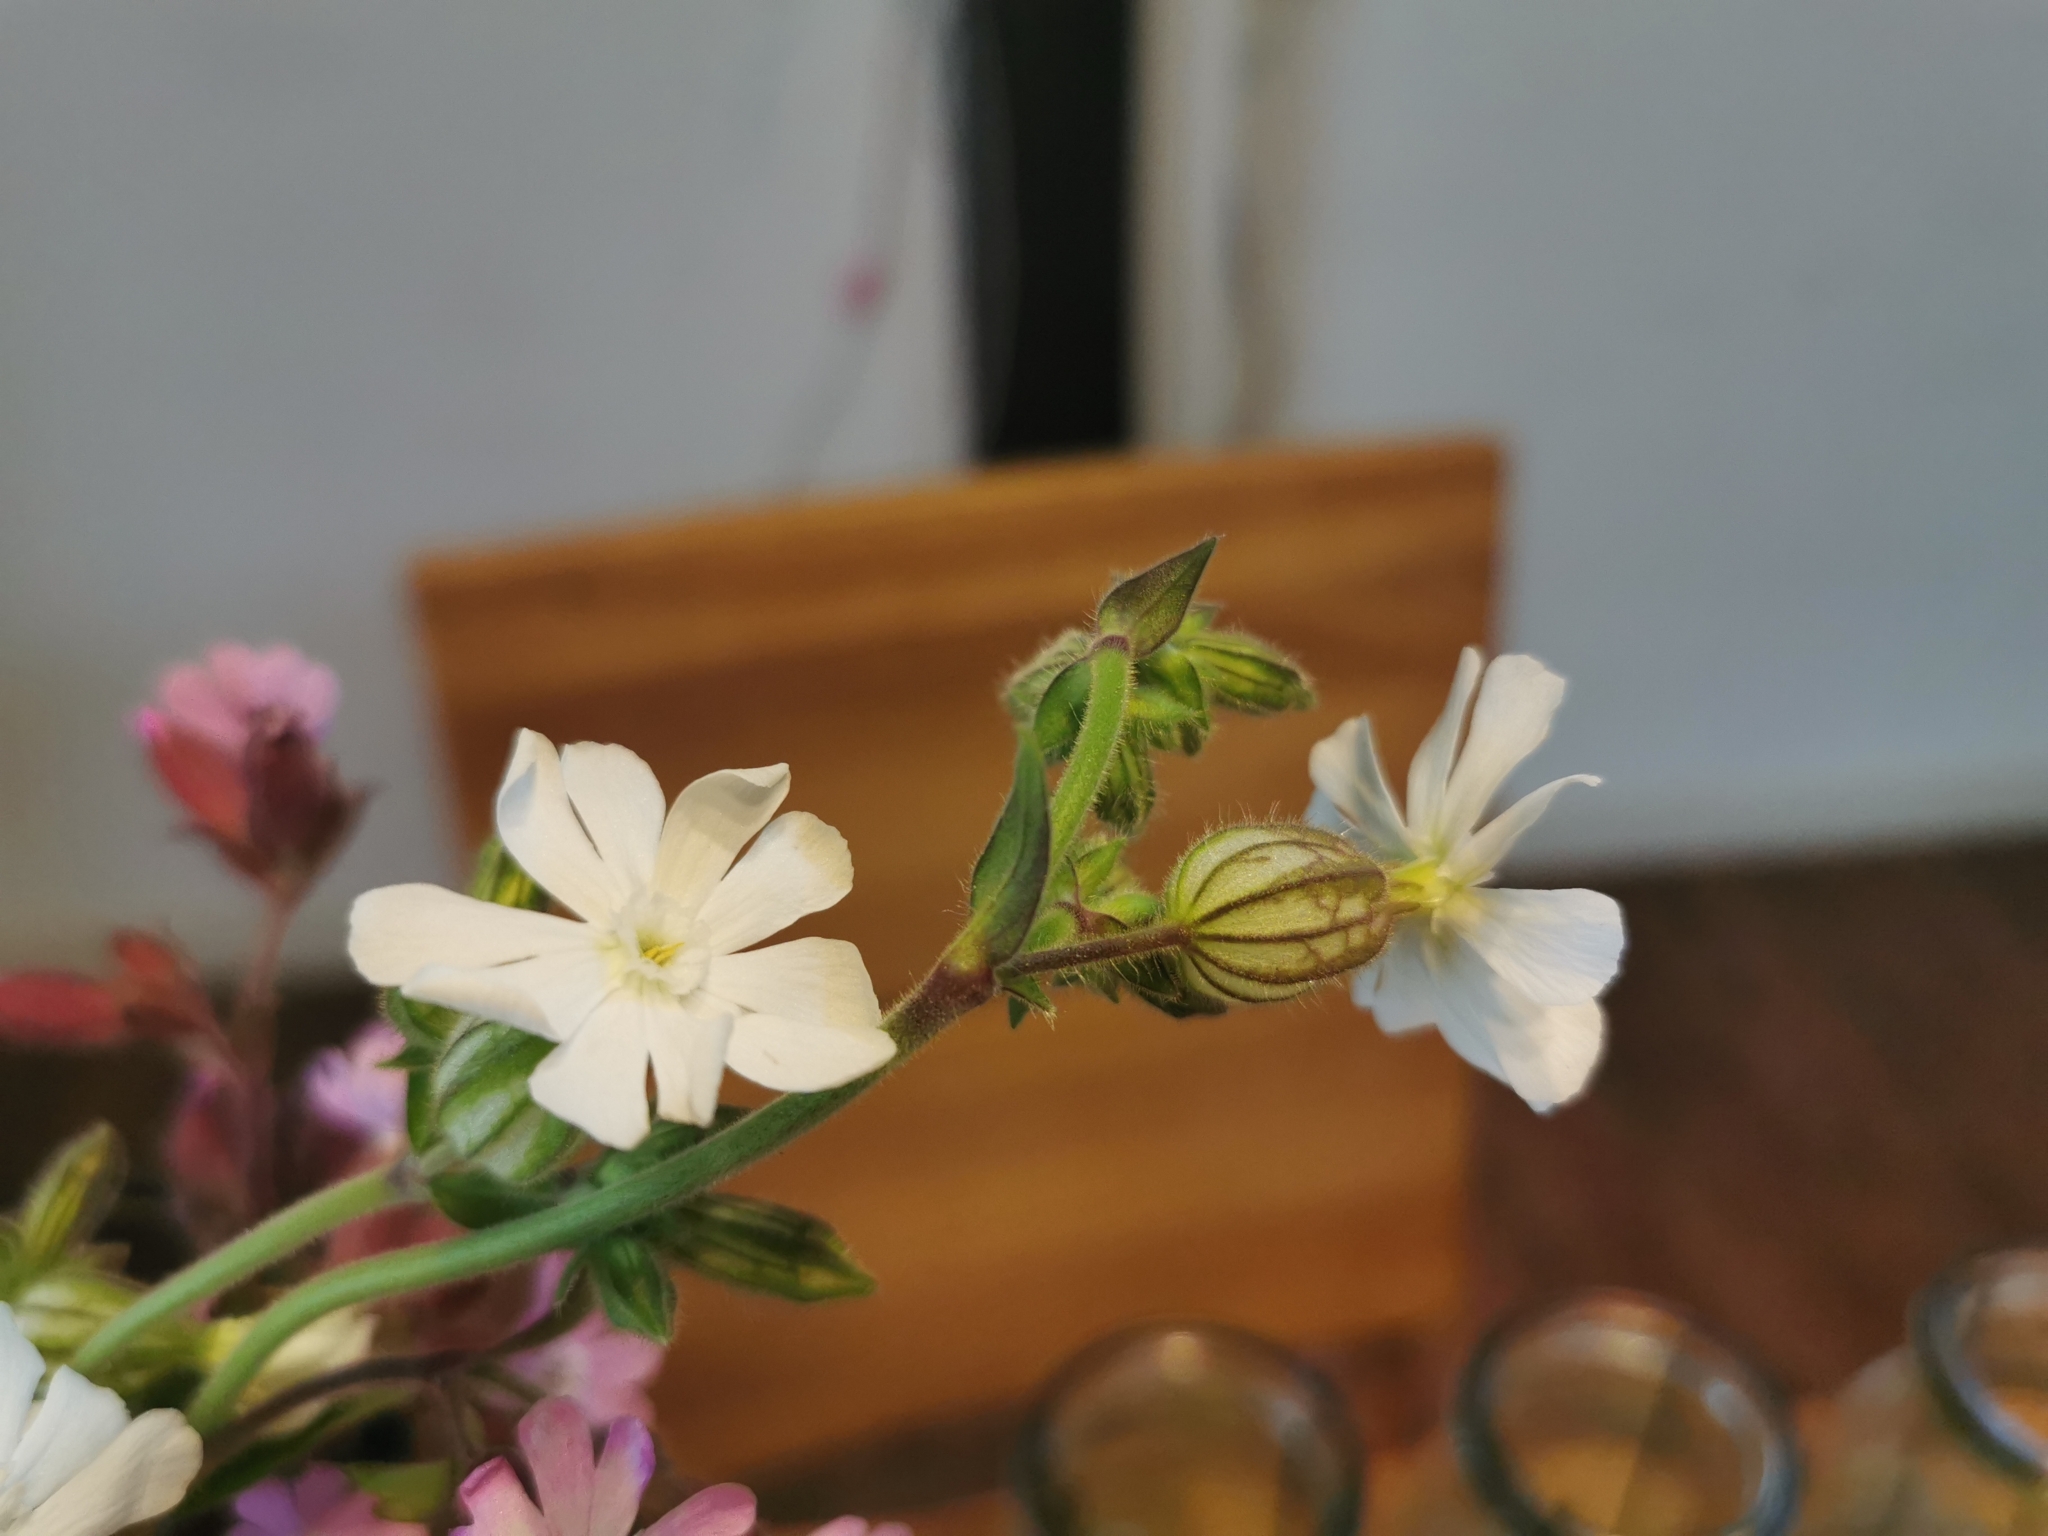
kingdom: Plantae
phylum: Tracheophyta
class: Magnoliopsida
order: Caryophyllales
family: Caryophyllaceae
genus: Silene
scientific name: Silene latifolia
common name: White campion
